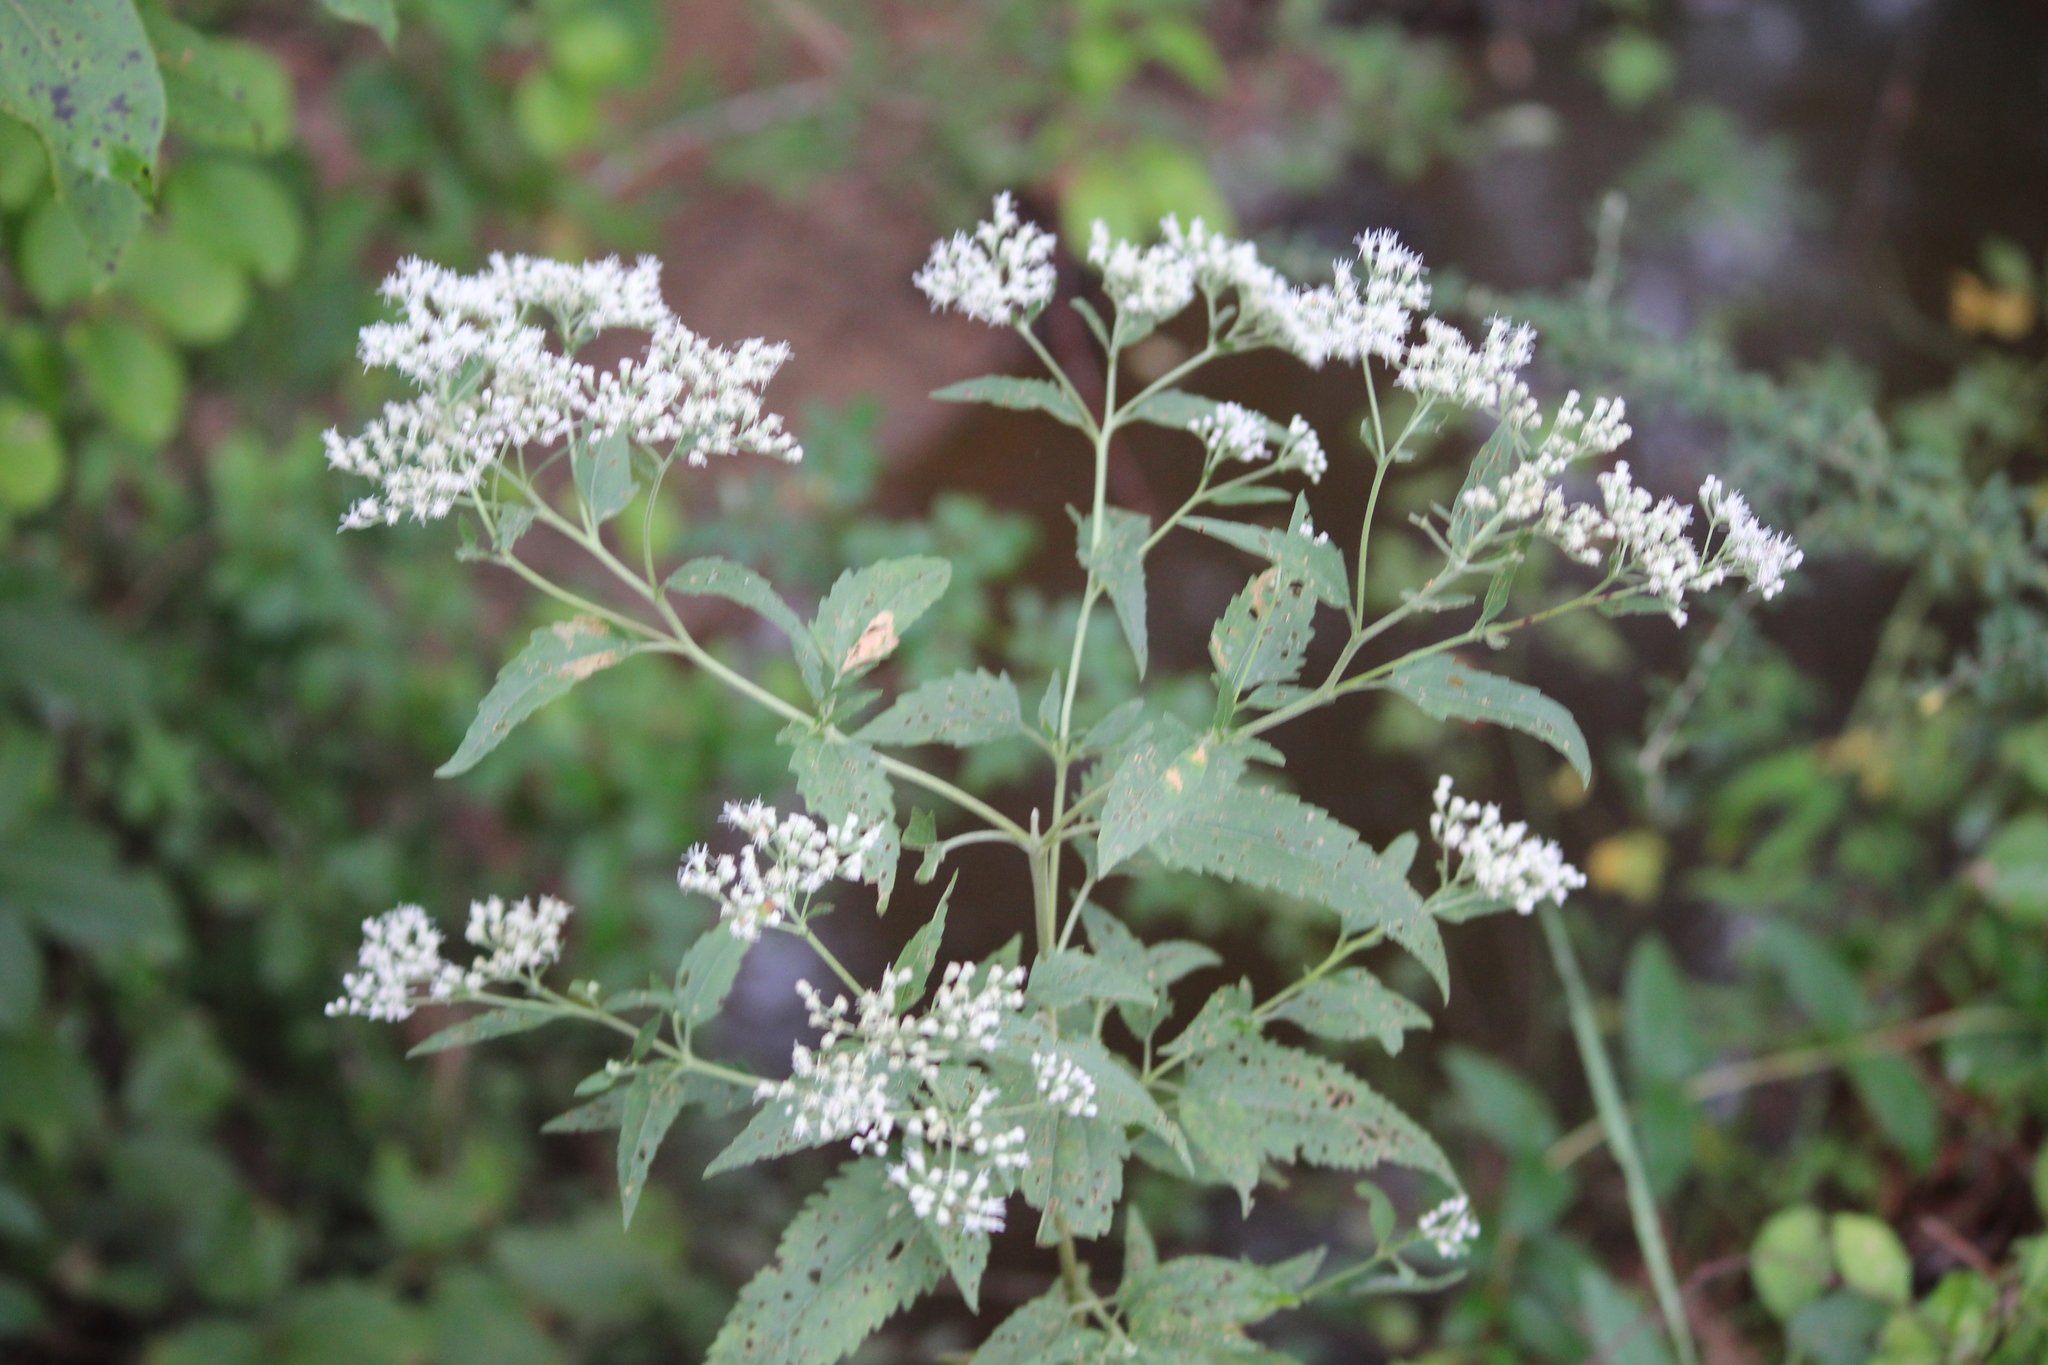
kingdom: Plantae
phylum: Tracheophyta
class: Magnoliopsida
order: Asterales
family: Asteraceae
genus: Eupatorium
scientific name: Eupatorium serotinum
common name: Late boneset
